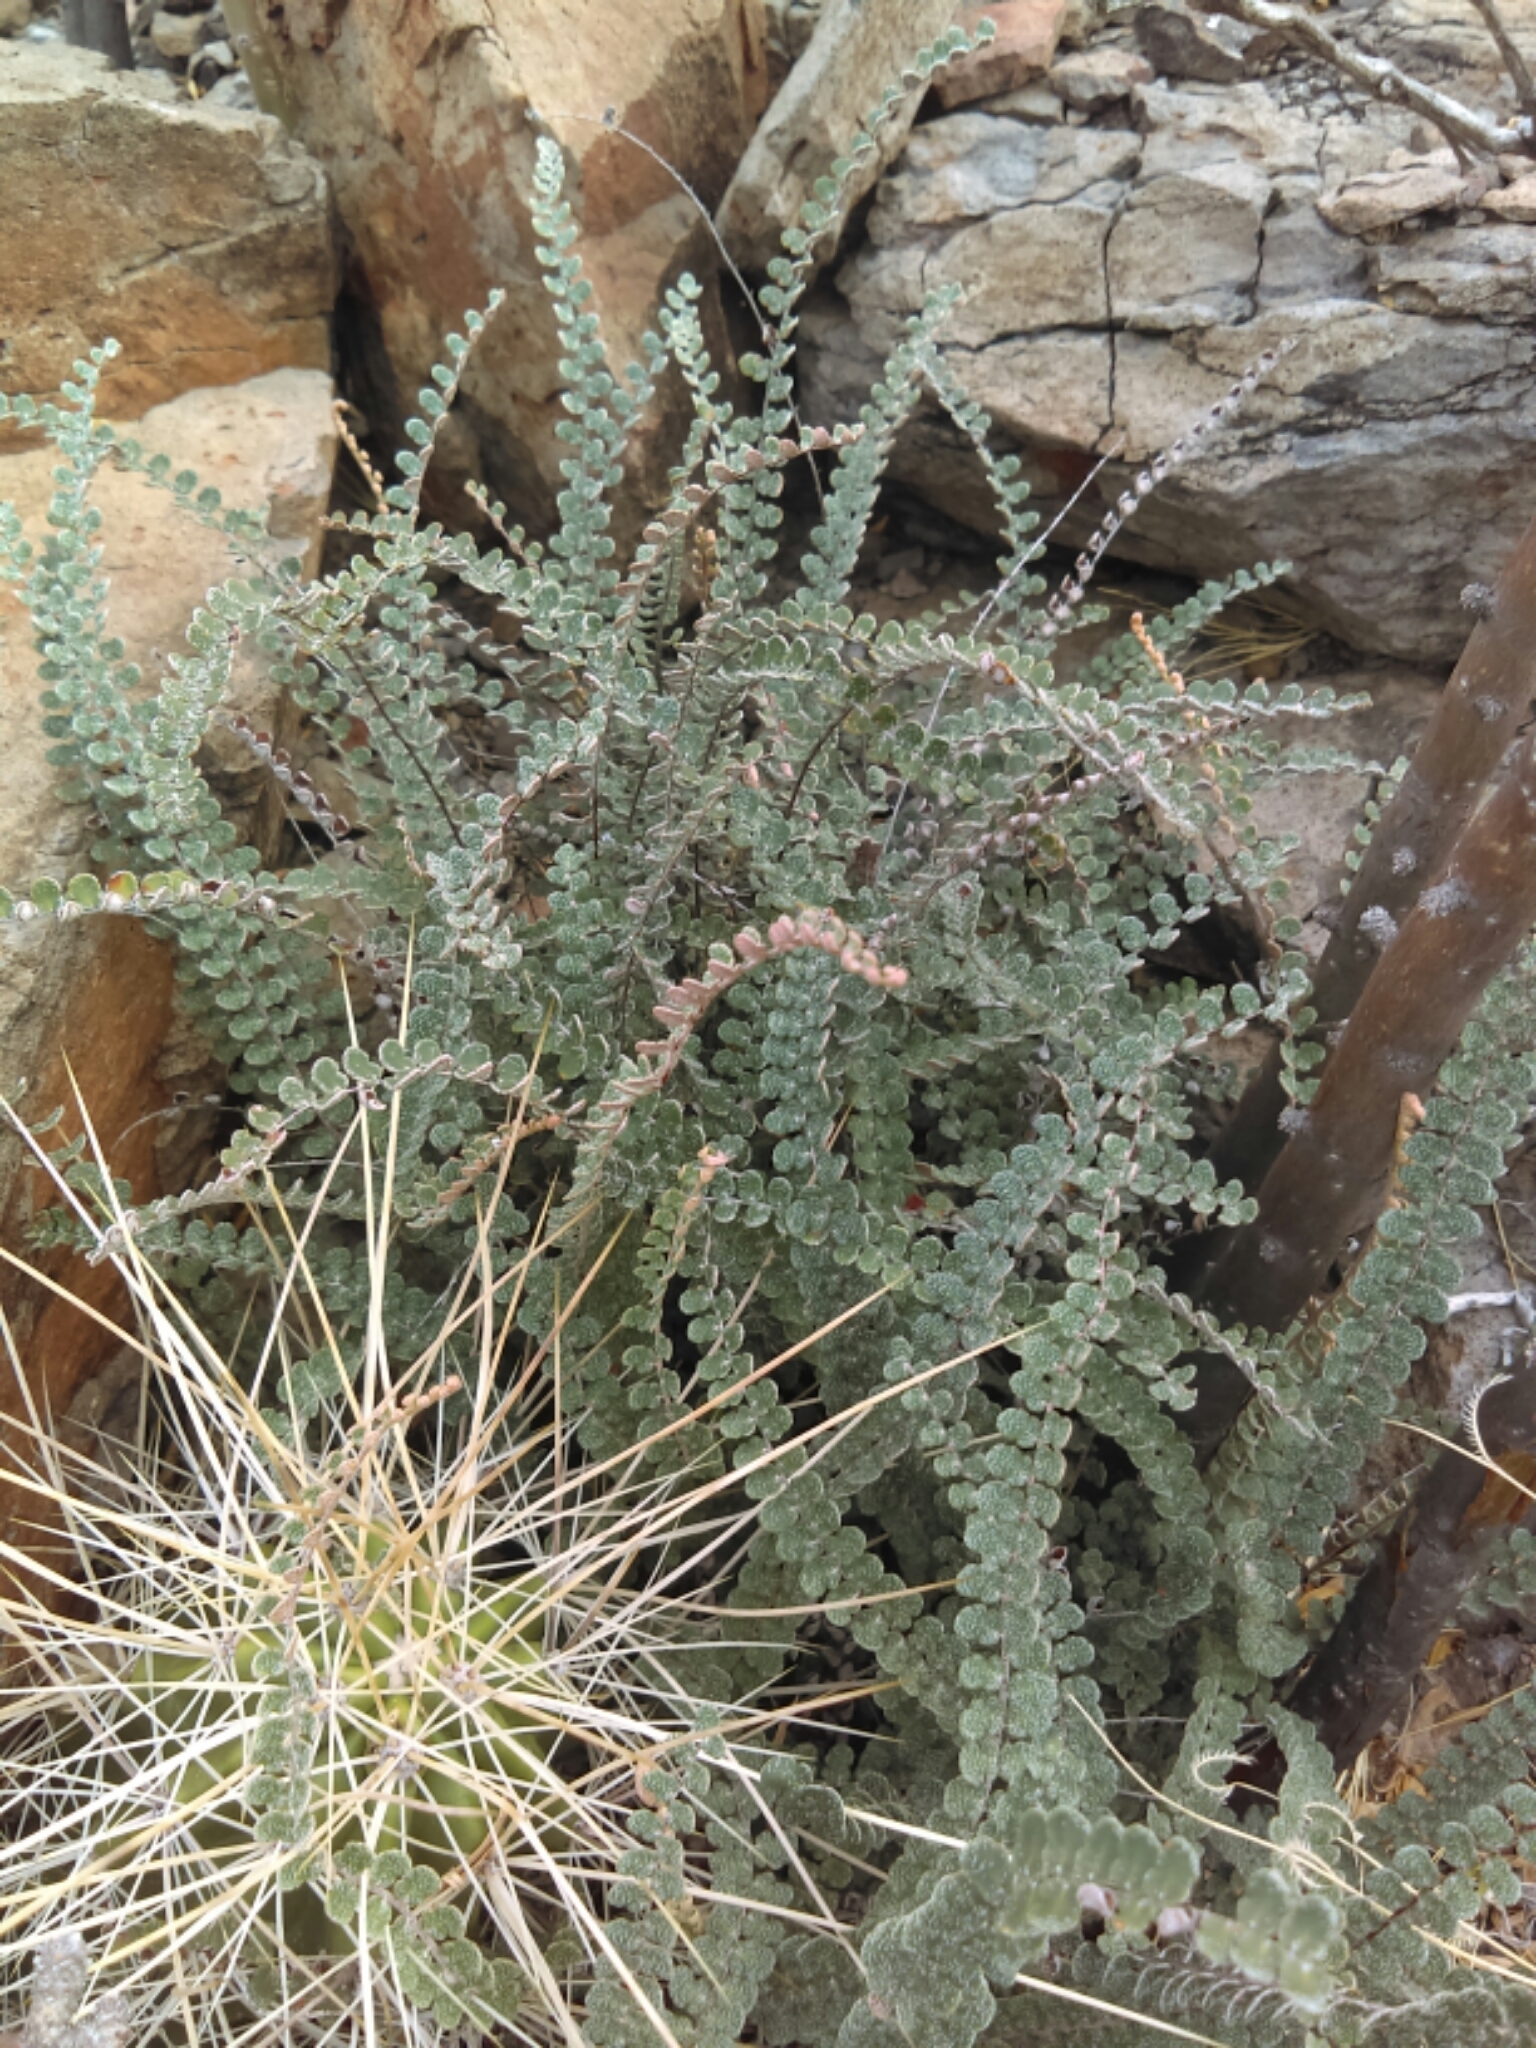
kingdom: Plantae
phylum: Tracheophyta
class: Polypodiopsida
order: Polypodiales
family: Pteridaceae
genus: Astrolepis
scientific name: Astrolepis cochisensis
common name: Scaly cloak fern
